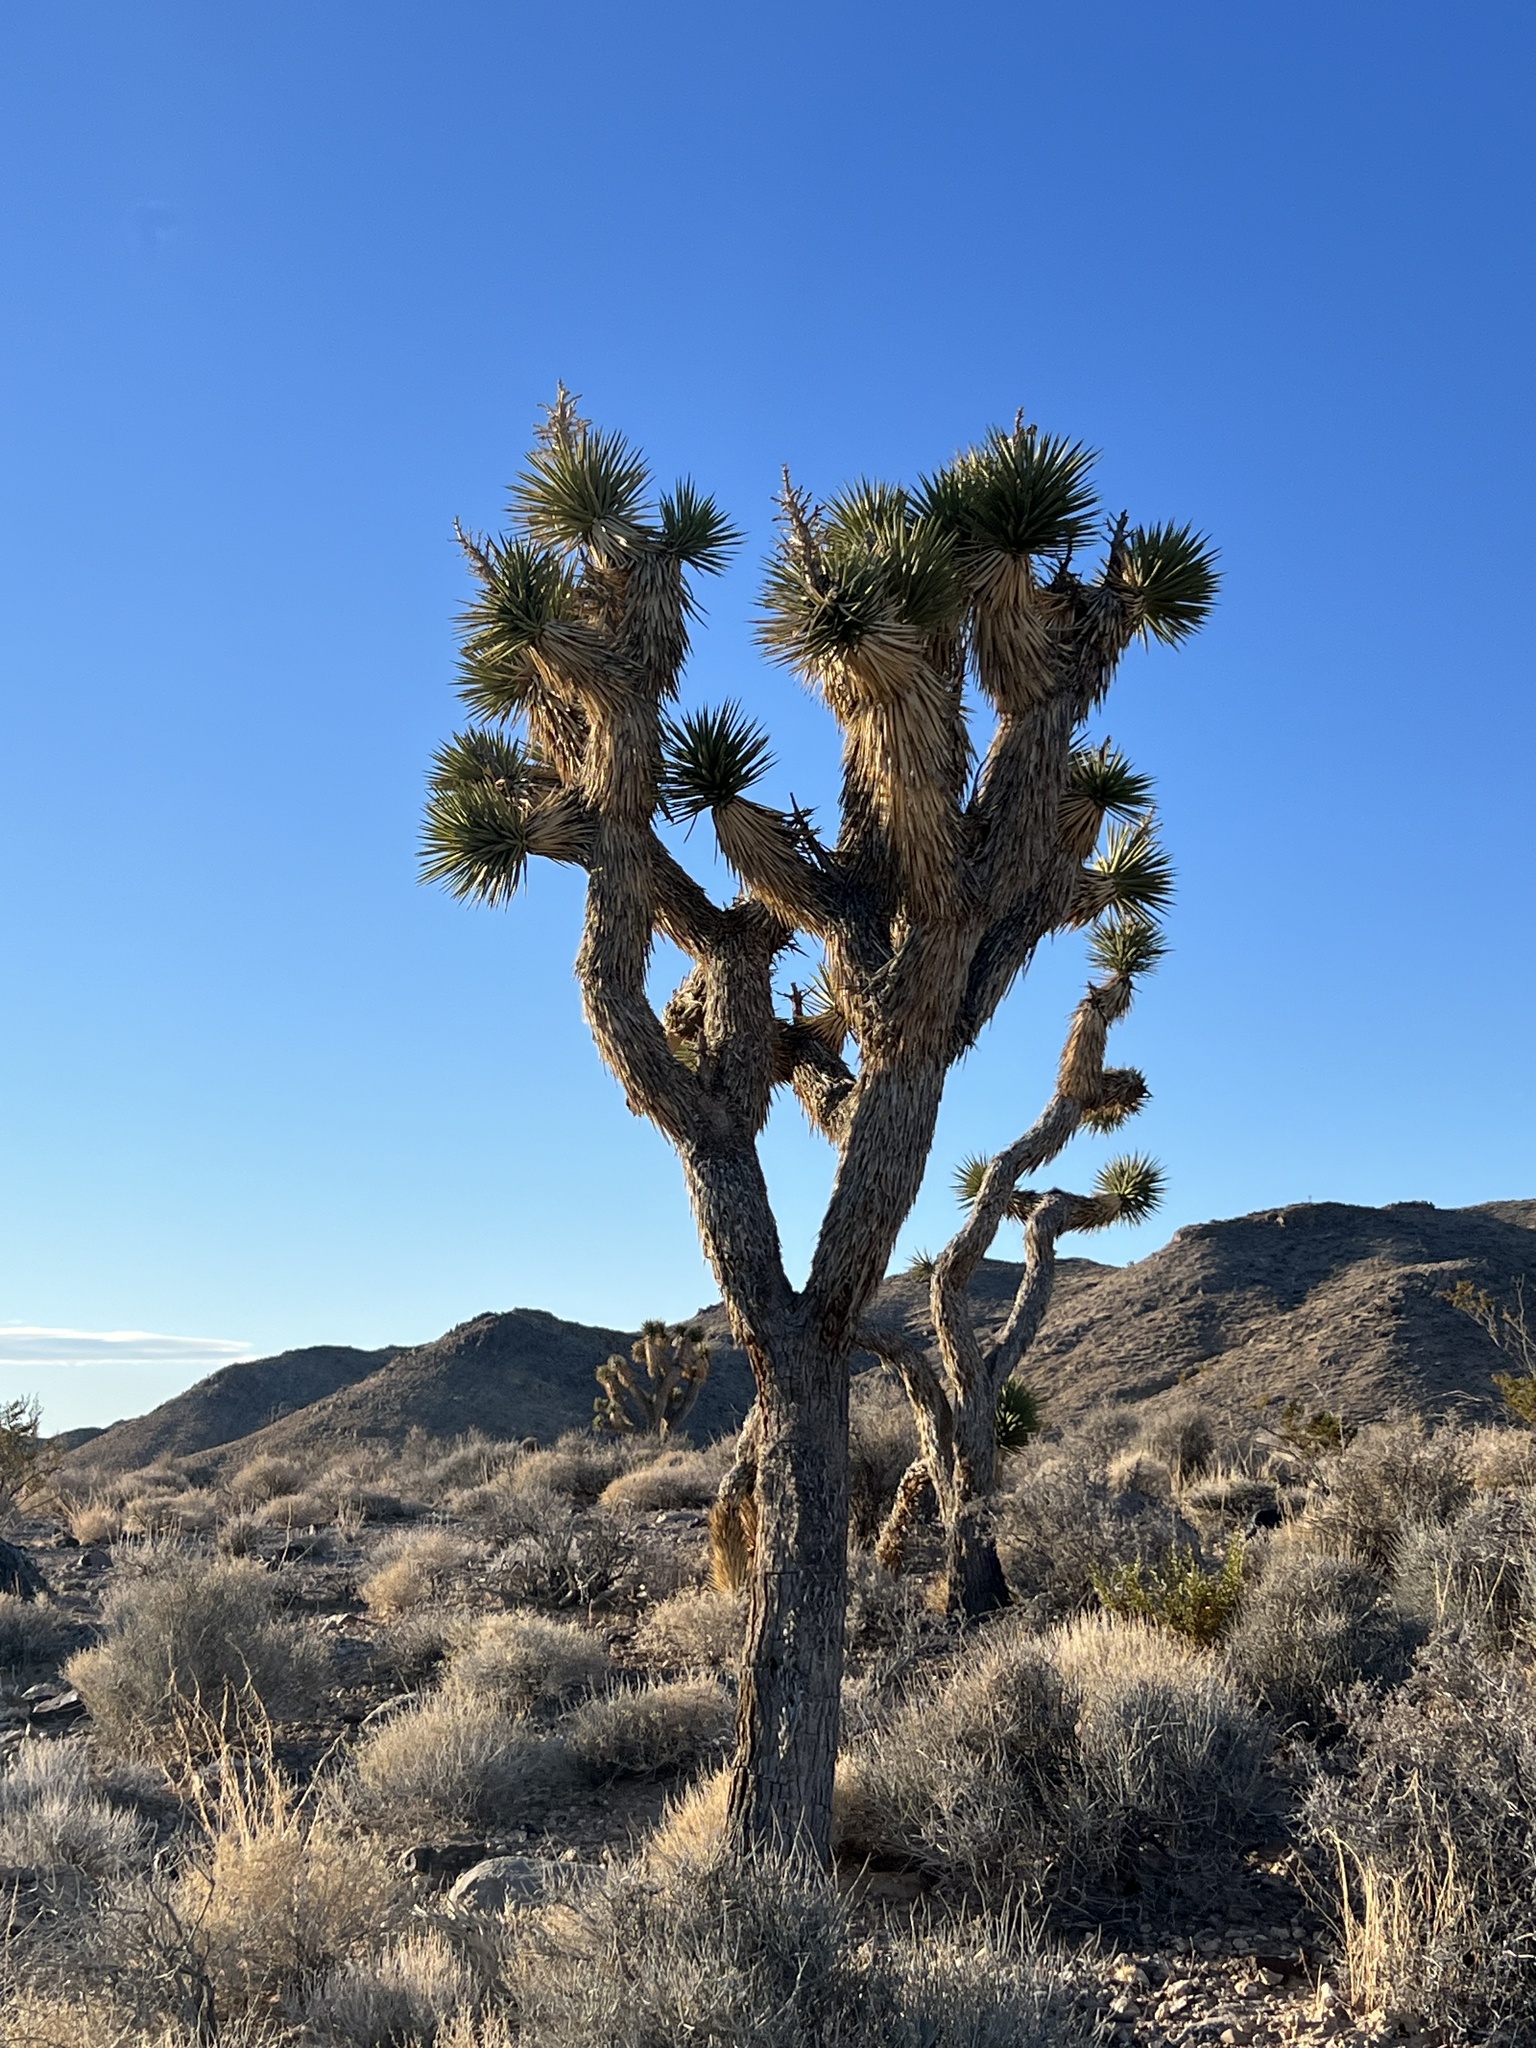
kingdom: Plantae
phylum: Tracheophyta
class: Liliopsida
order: Asparagales
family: Asparagaceae
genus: Yucca
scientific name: Yucca brevifolia
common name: Joshua tree
